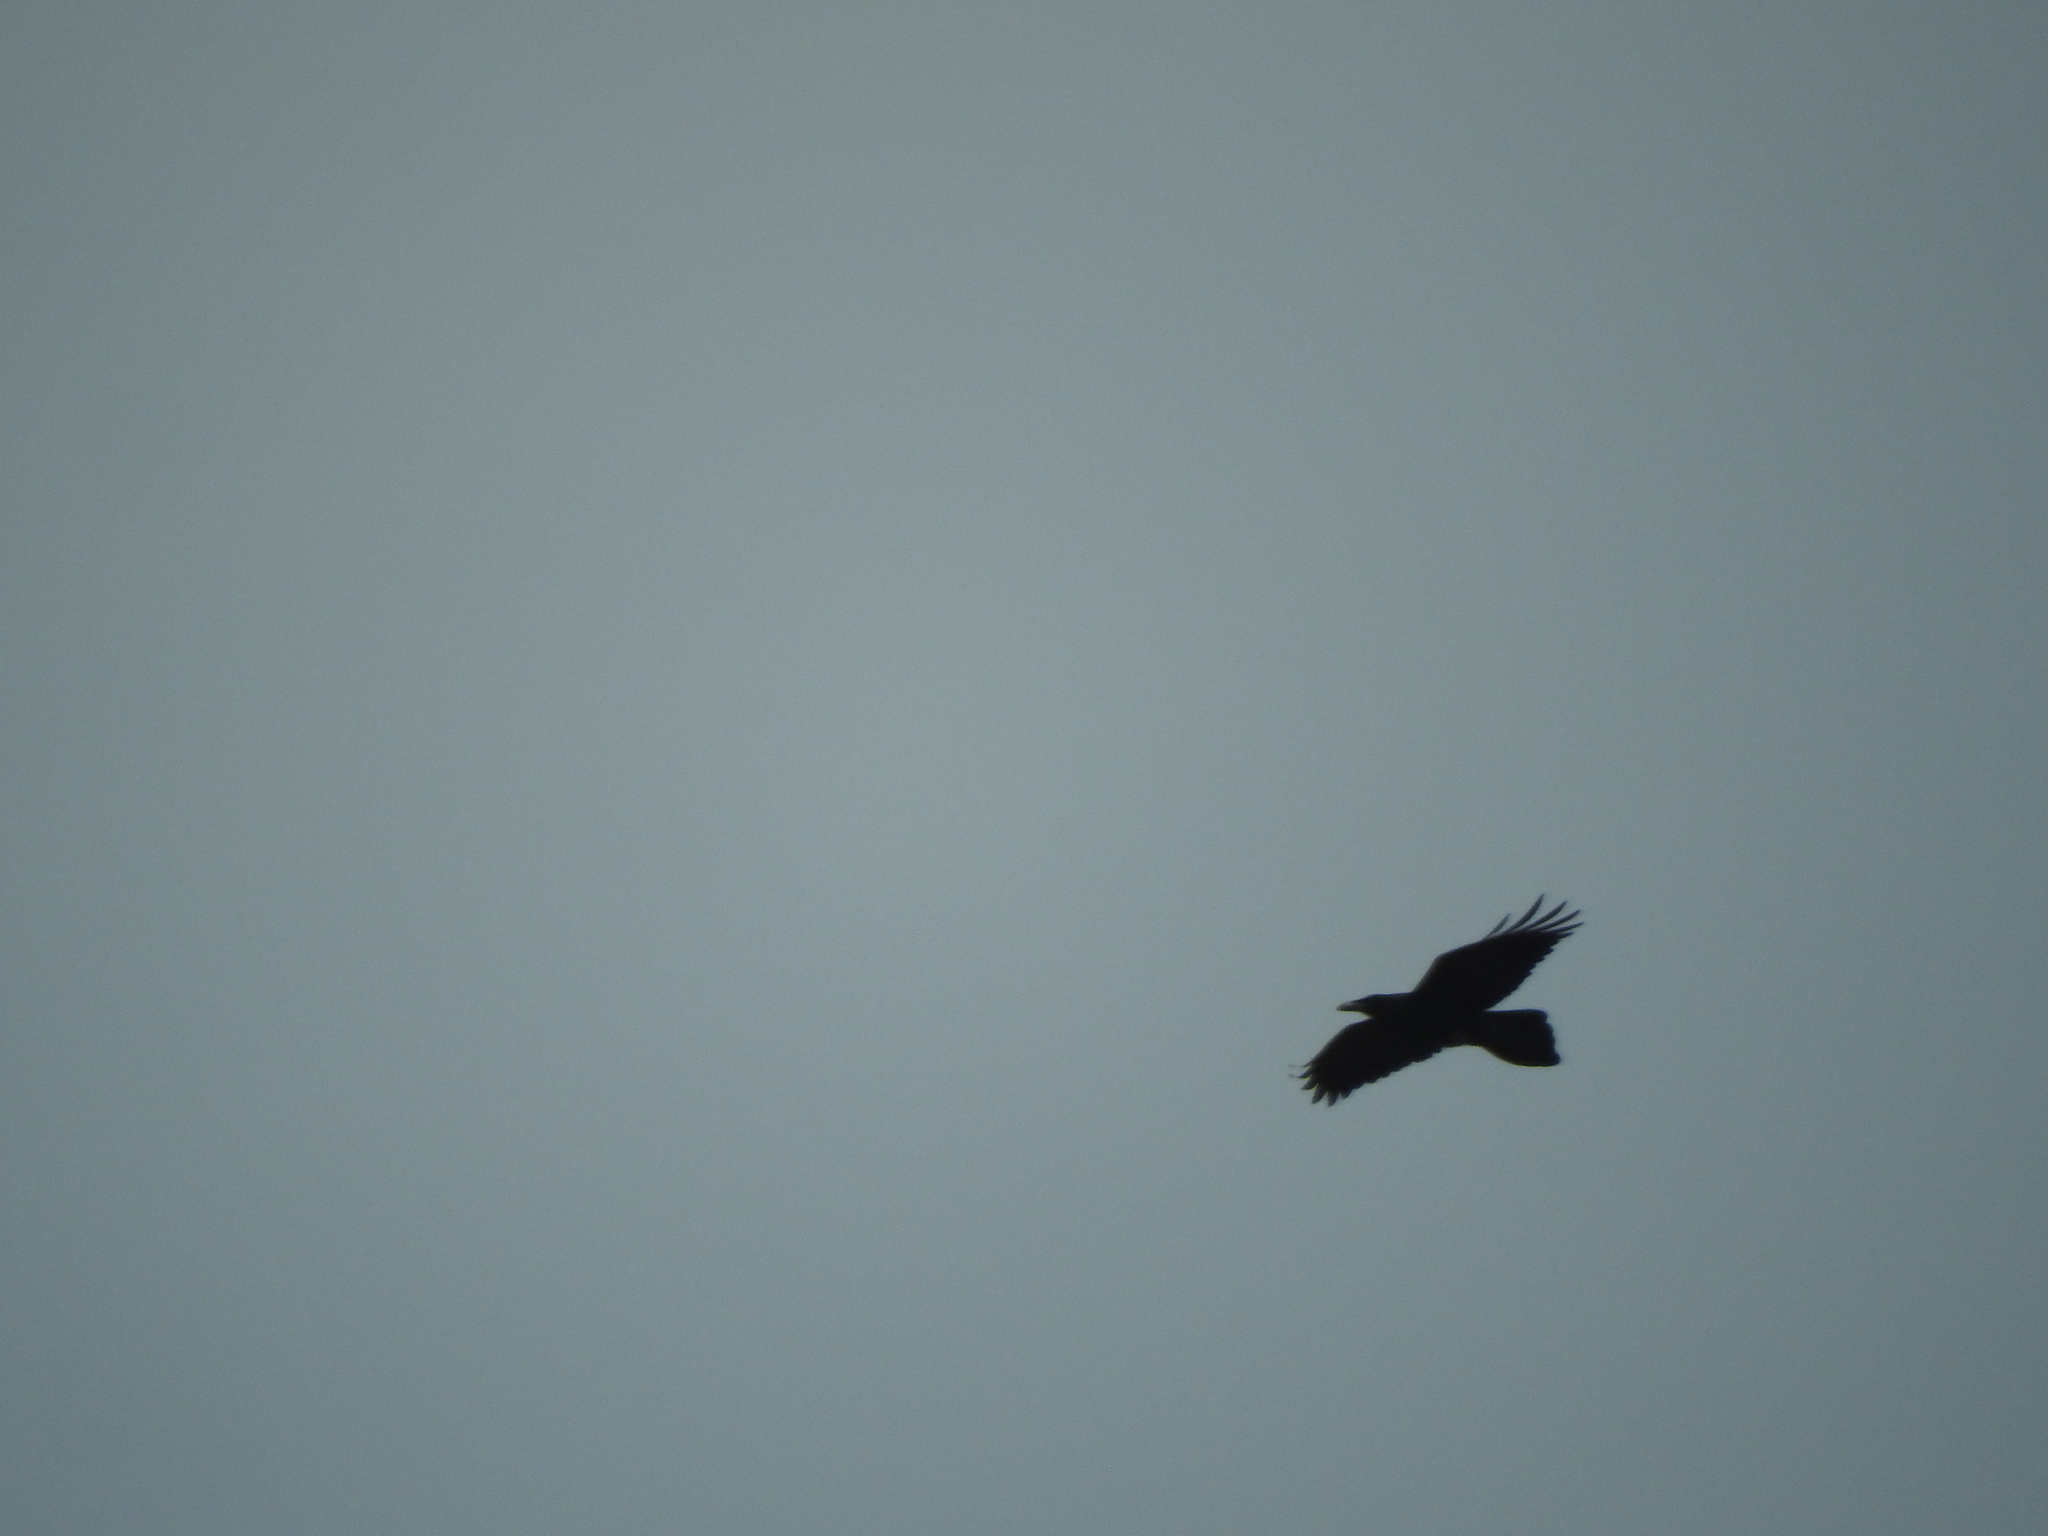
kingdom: Animalia
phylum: Chordata
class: Aves
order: Passeriformes
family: Corvidae
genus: Corvus
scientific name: Corvus corax
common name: Common raven
